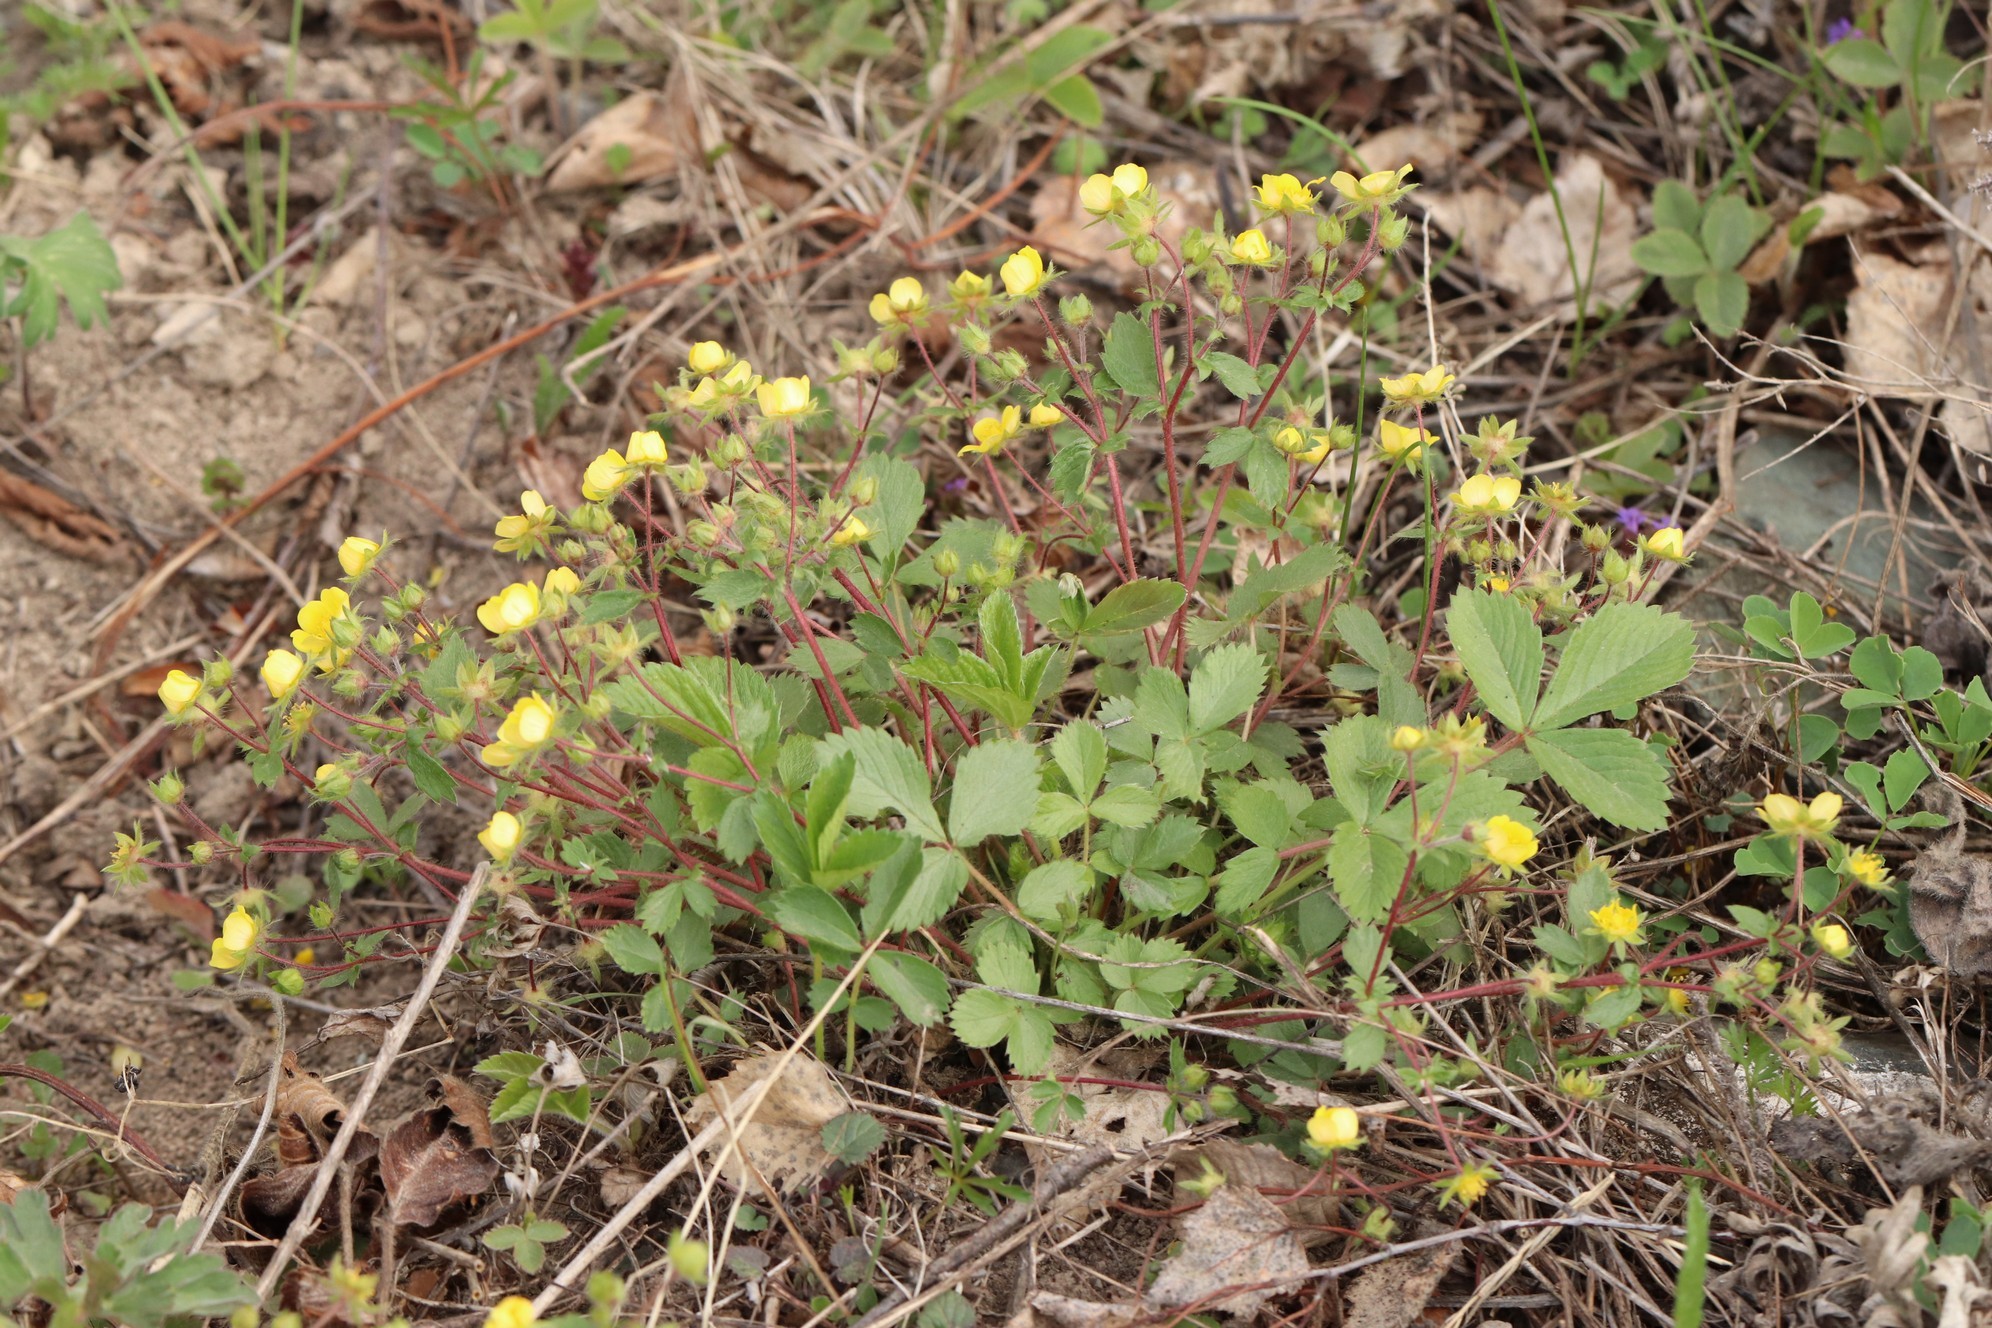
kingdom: Plantae
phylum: Tracheophyta
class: Magnoliopsida
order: Rosales
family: Rosaceae
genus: Potentilla
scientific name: Potentilla fragarioides
